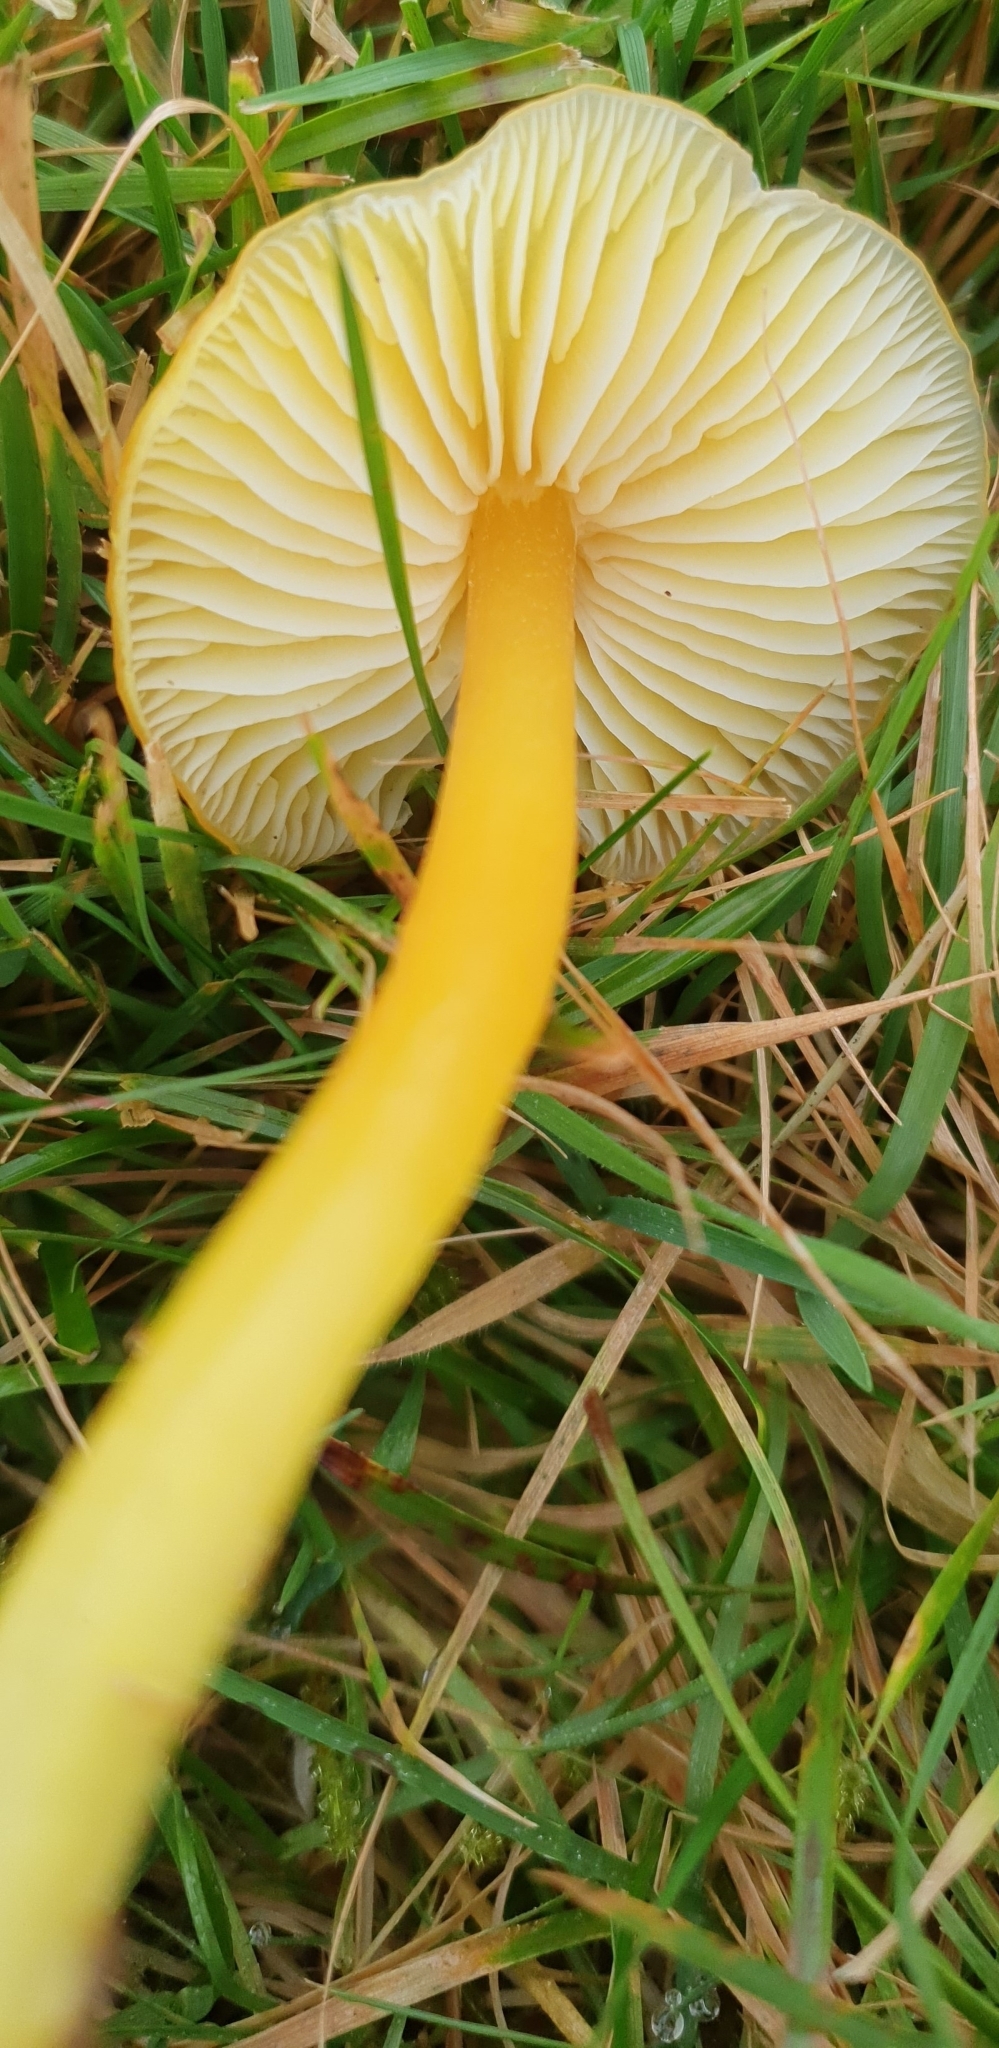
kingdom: Fungi
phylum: Basidiomycota
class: Agaricomycetes
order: Agaricales
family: Hygrophoraceae
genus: Hygrocybe
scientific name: Hygrocybe chlorophana
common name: Golden waxcap
